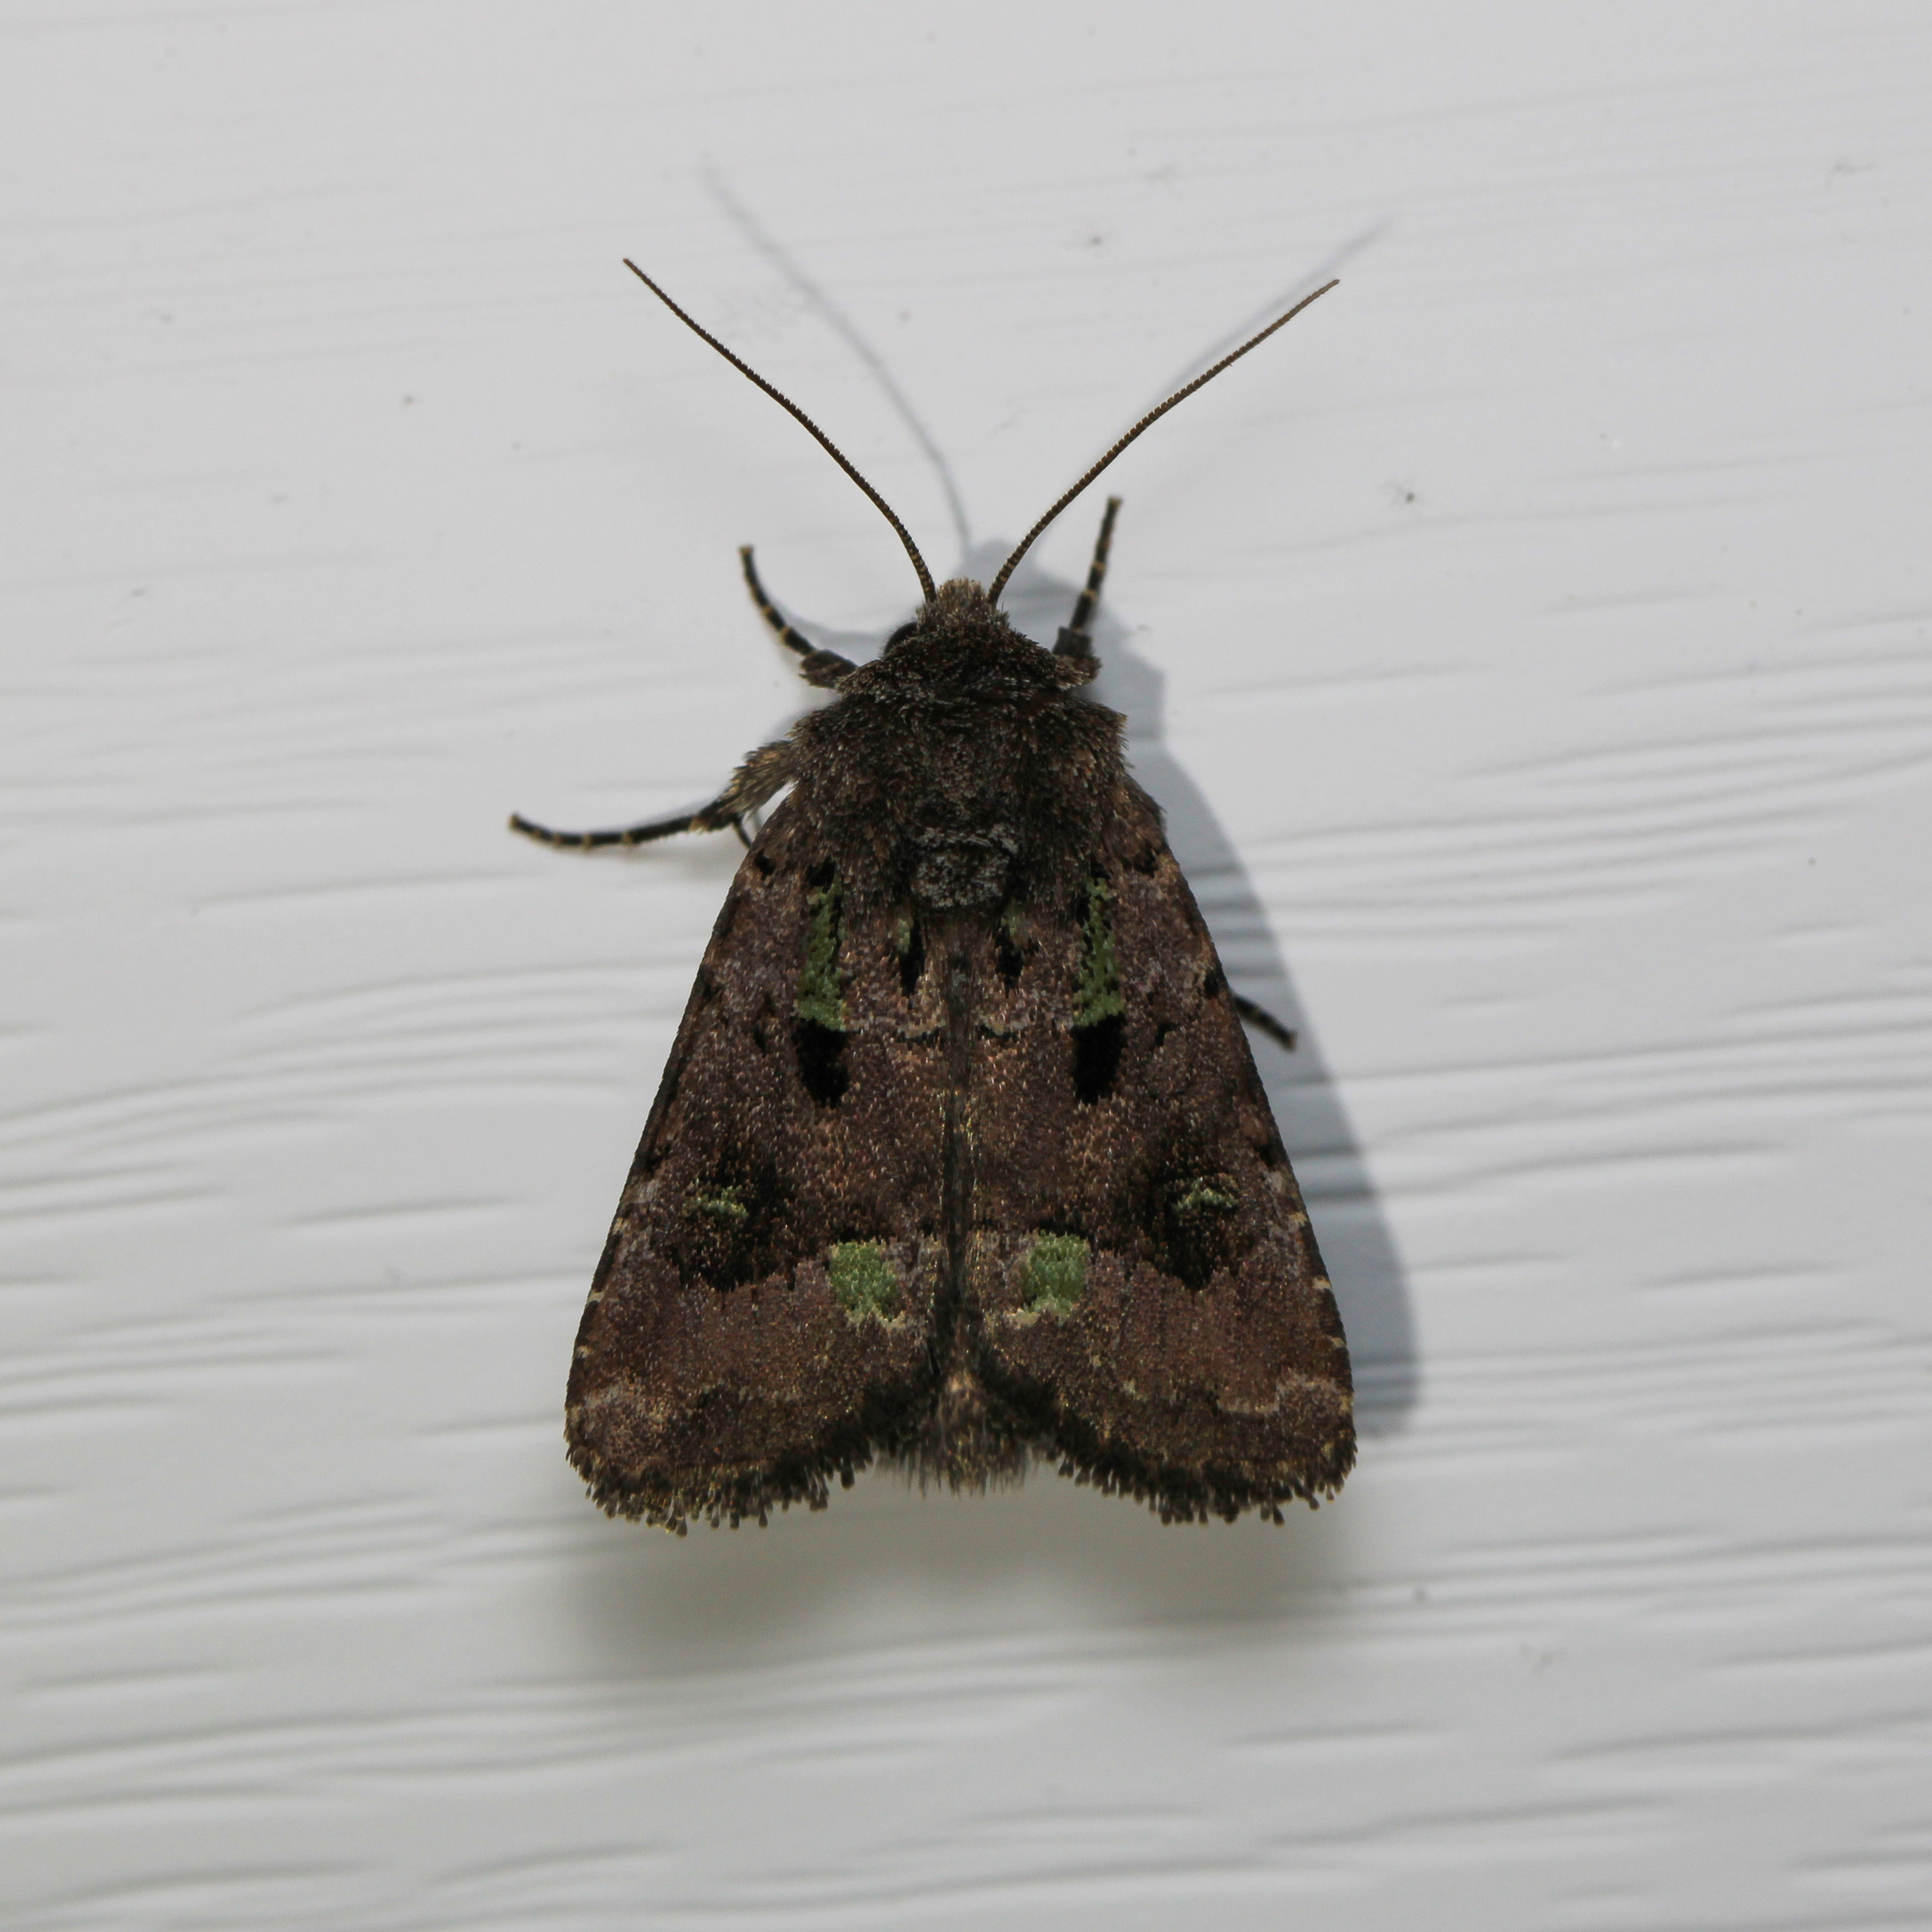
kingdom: Animalia
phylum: Arthropoda
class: Insecta
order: Lepidoptera
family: Noctuidae
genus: Lacinipolia
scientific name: Lacinipolia renigera
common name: Kidney-spotted minor
